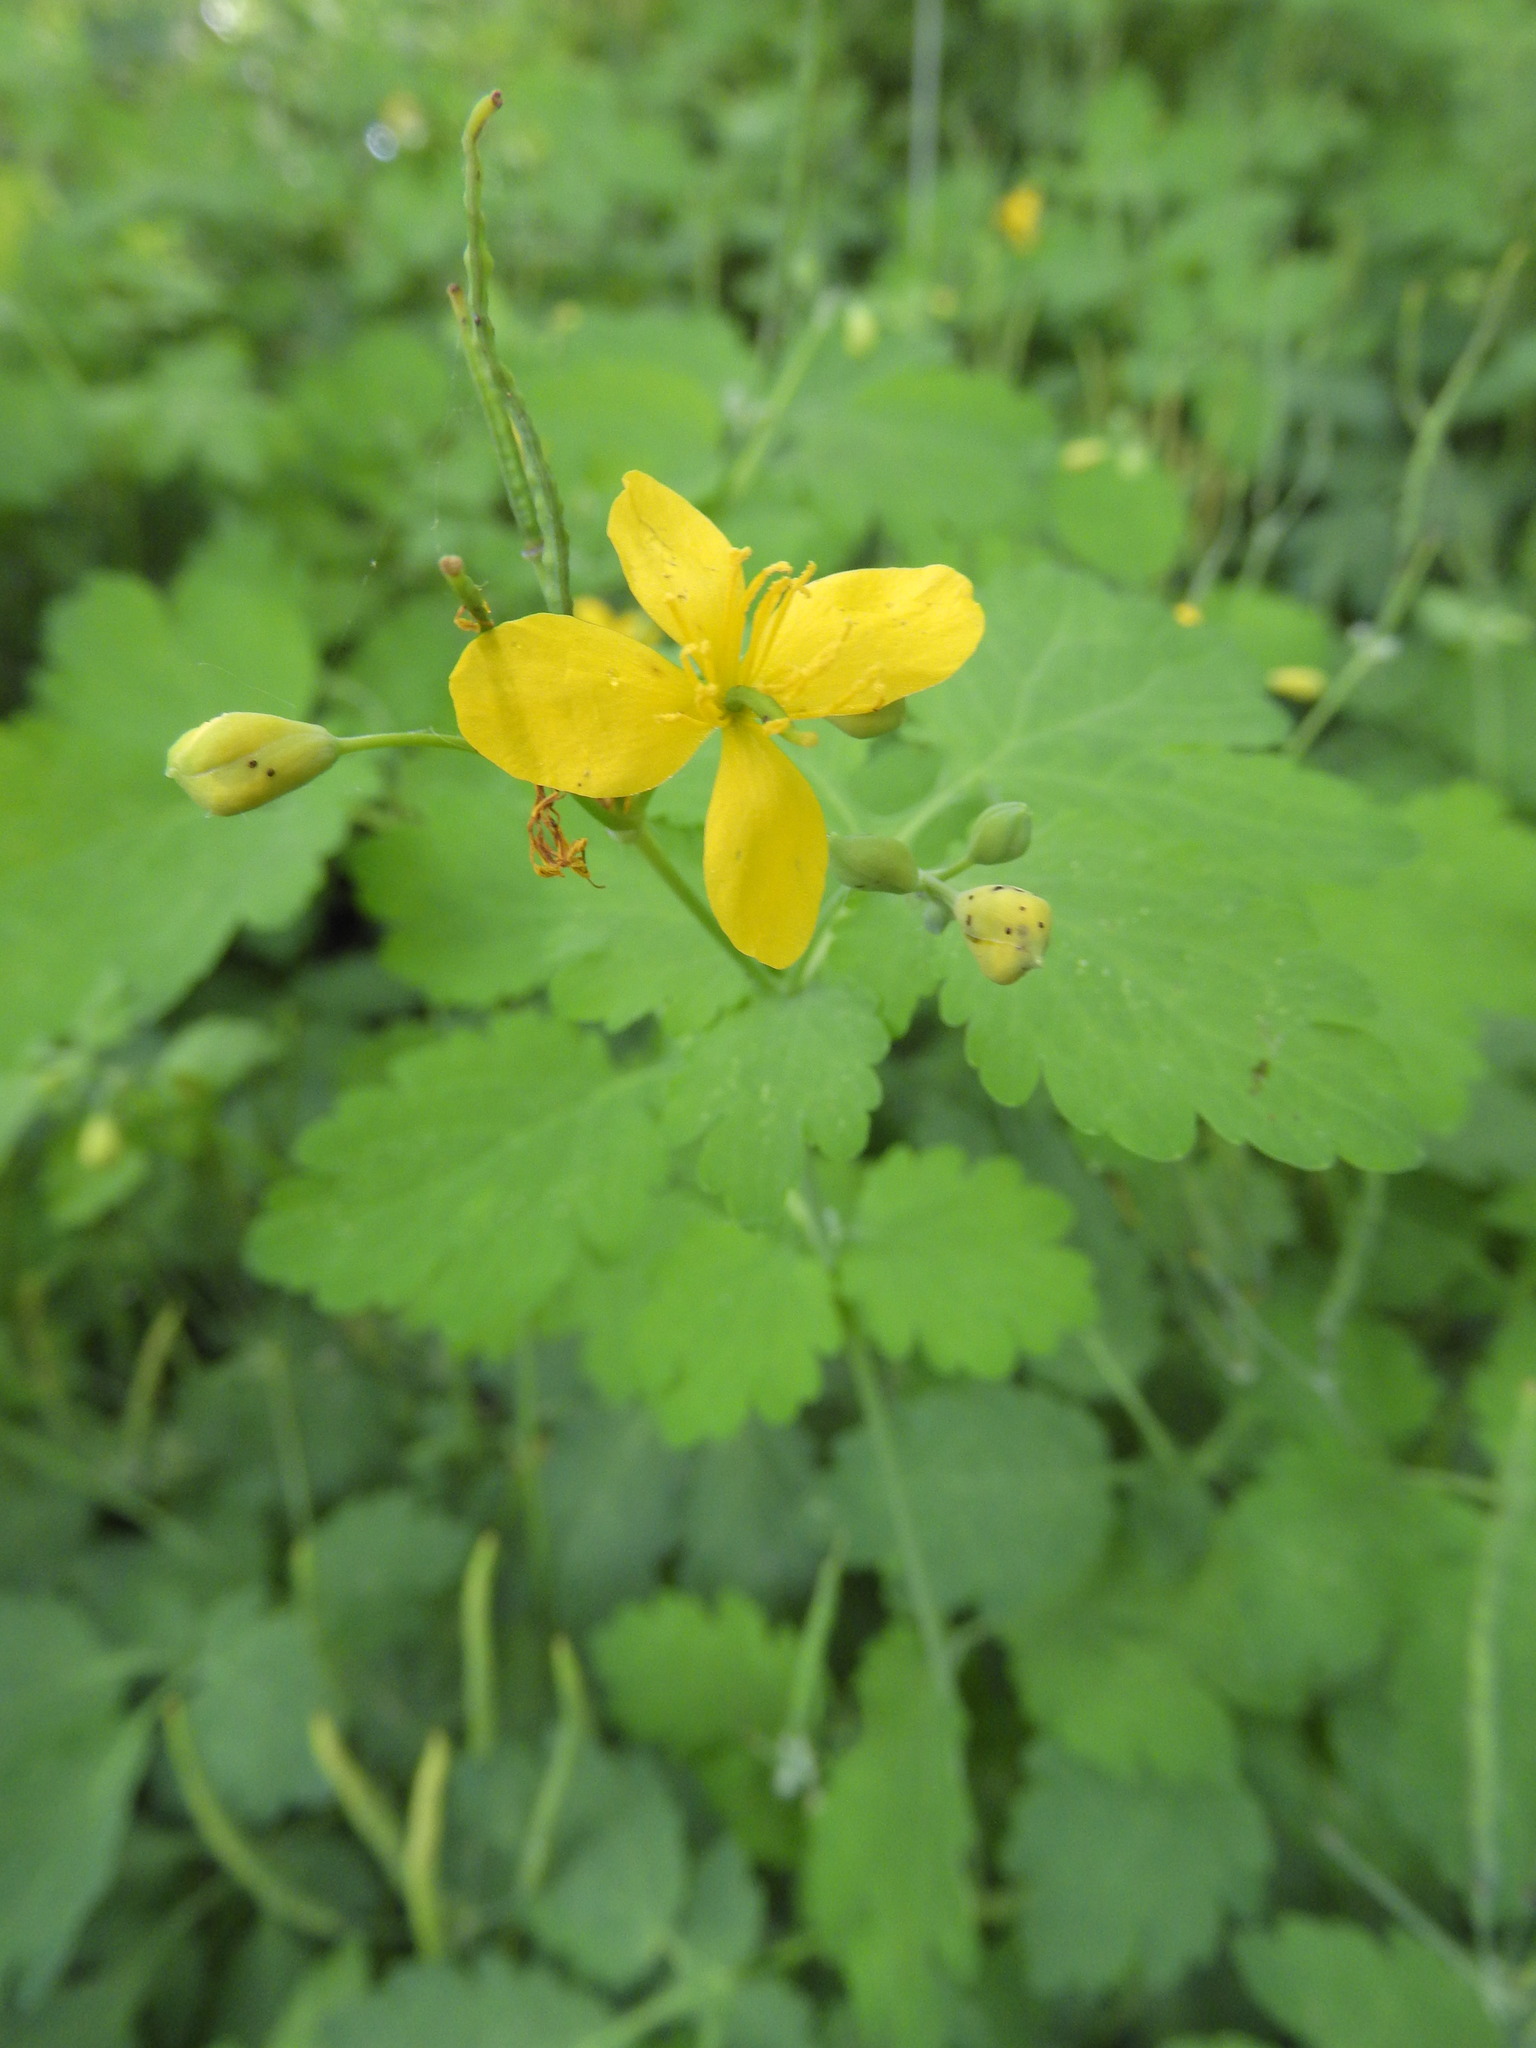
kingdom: Plantae
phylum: Tracheophyta
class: Magnoliopsida
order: Ranunculales
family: Papaveraceae
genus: Chelidonium
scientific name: Chelidonium majus
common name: Greater celandine
